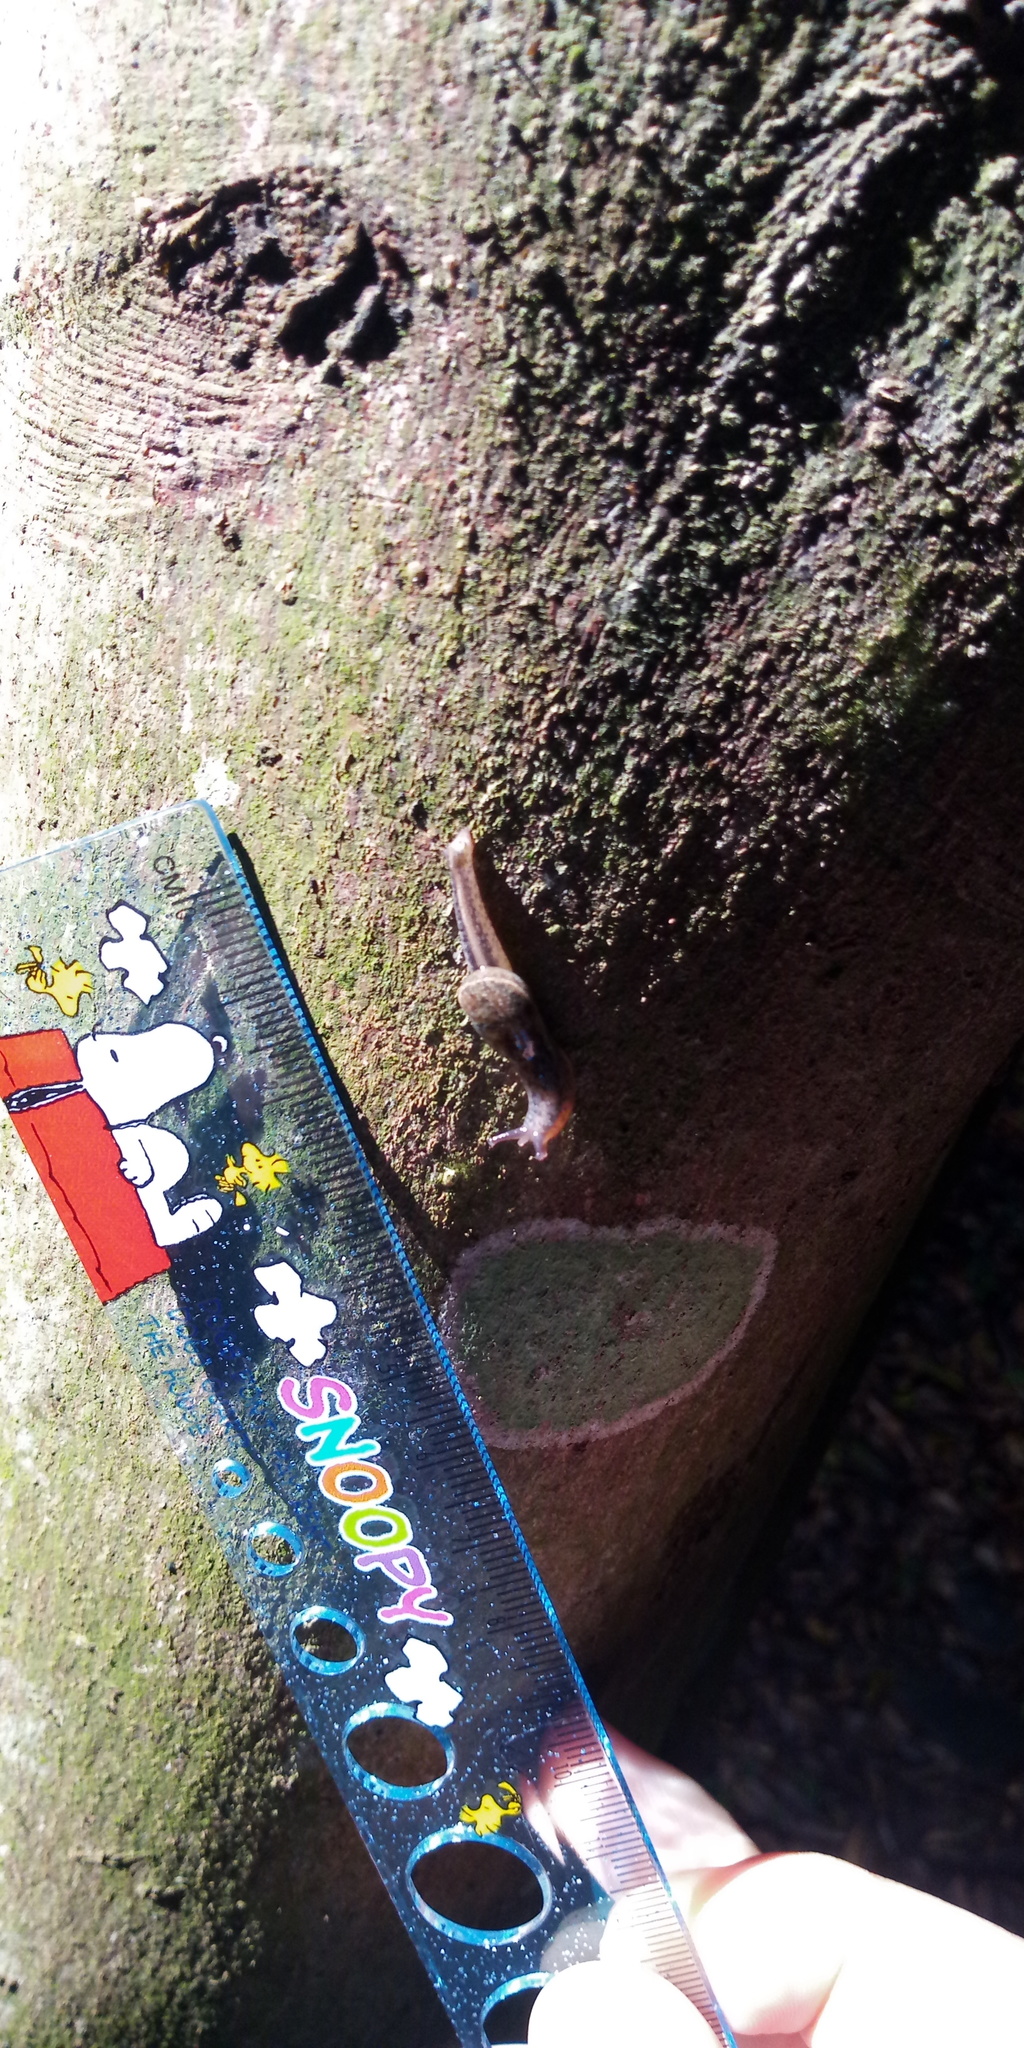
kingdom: Animalia
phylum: Mollusca
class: Gastropoda
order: Stylommatophora
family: Ariophantidae
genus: Parmarion
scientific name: Parmarion martensi
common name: Semi-slug
